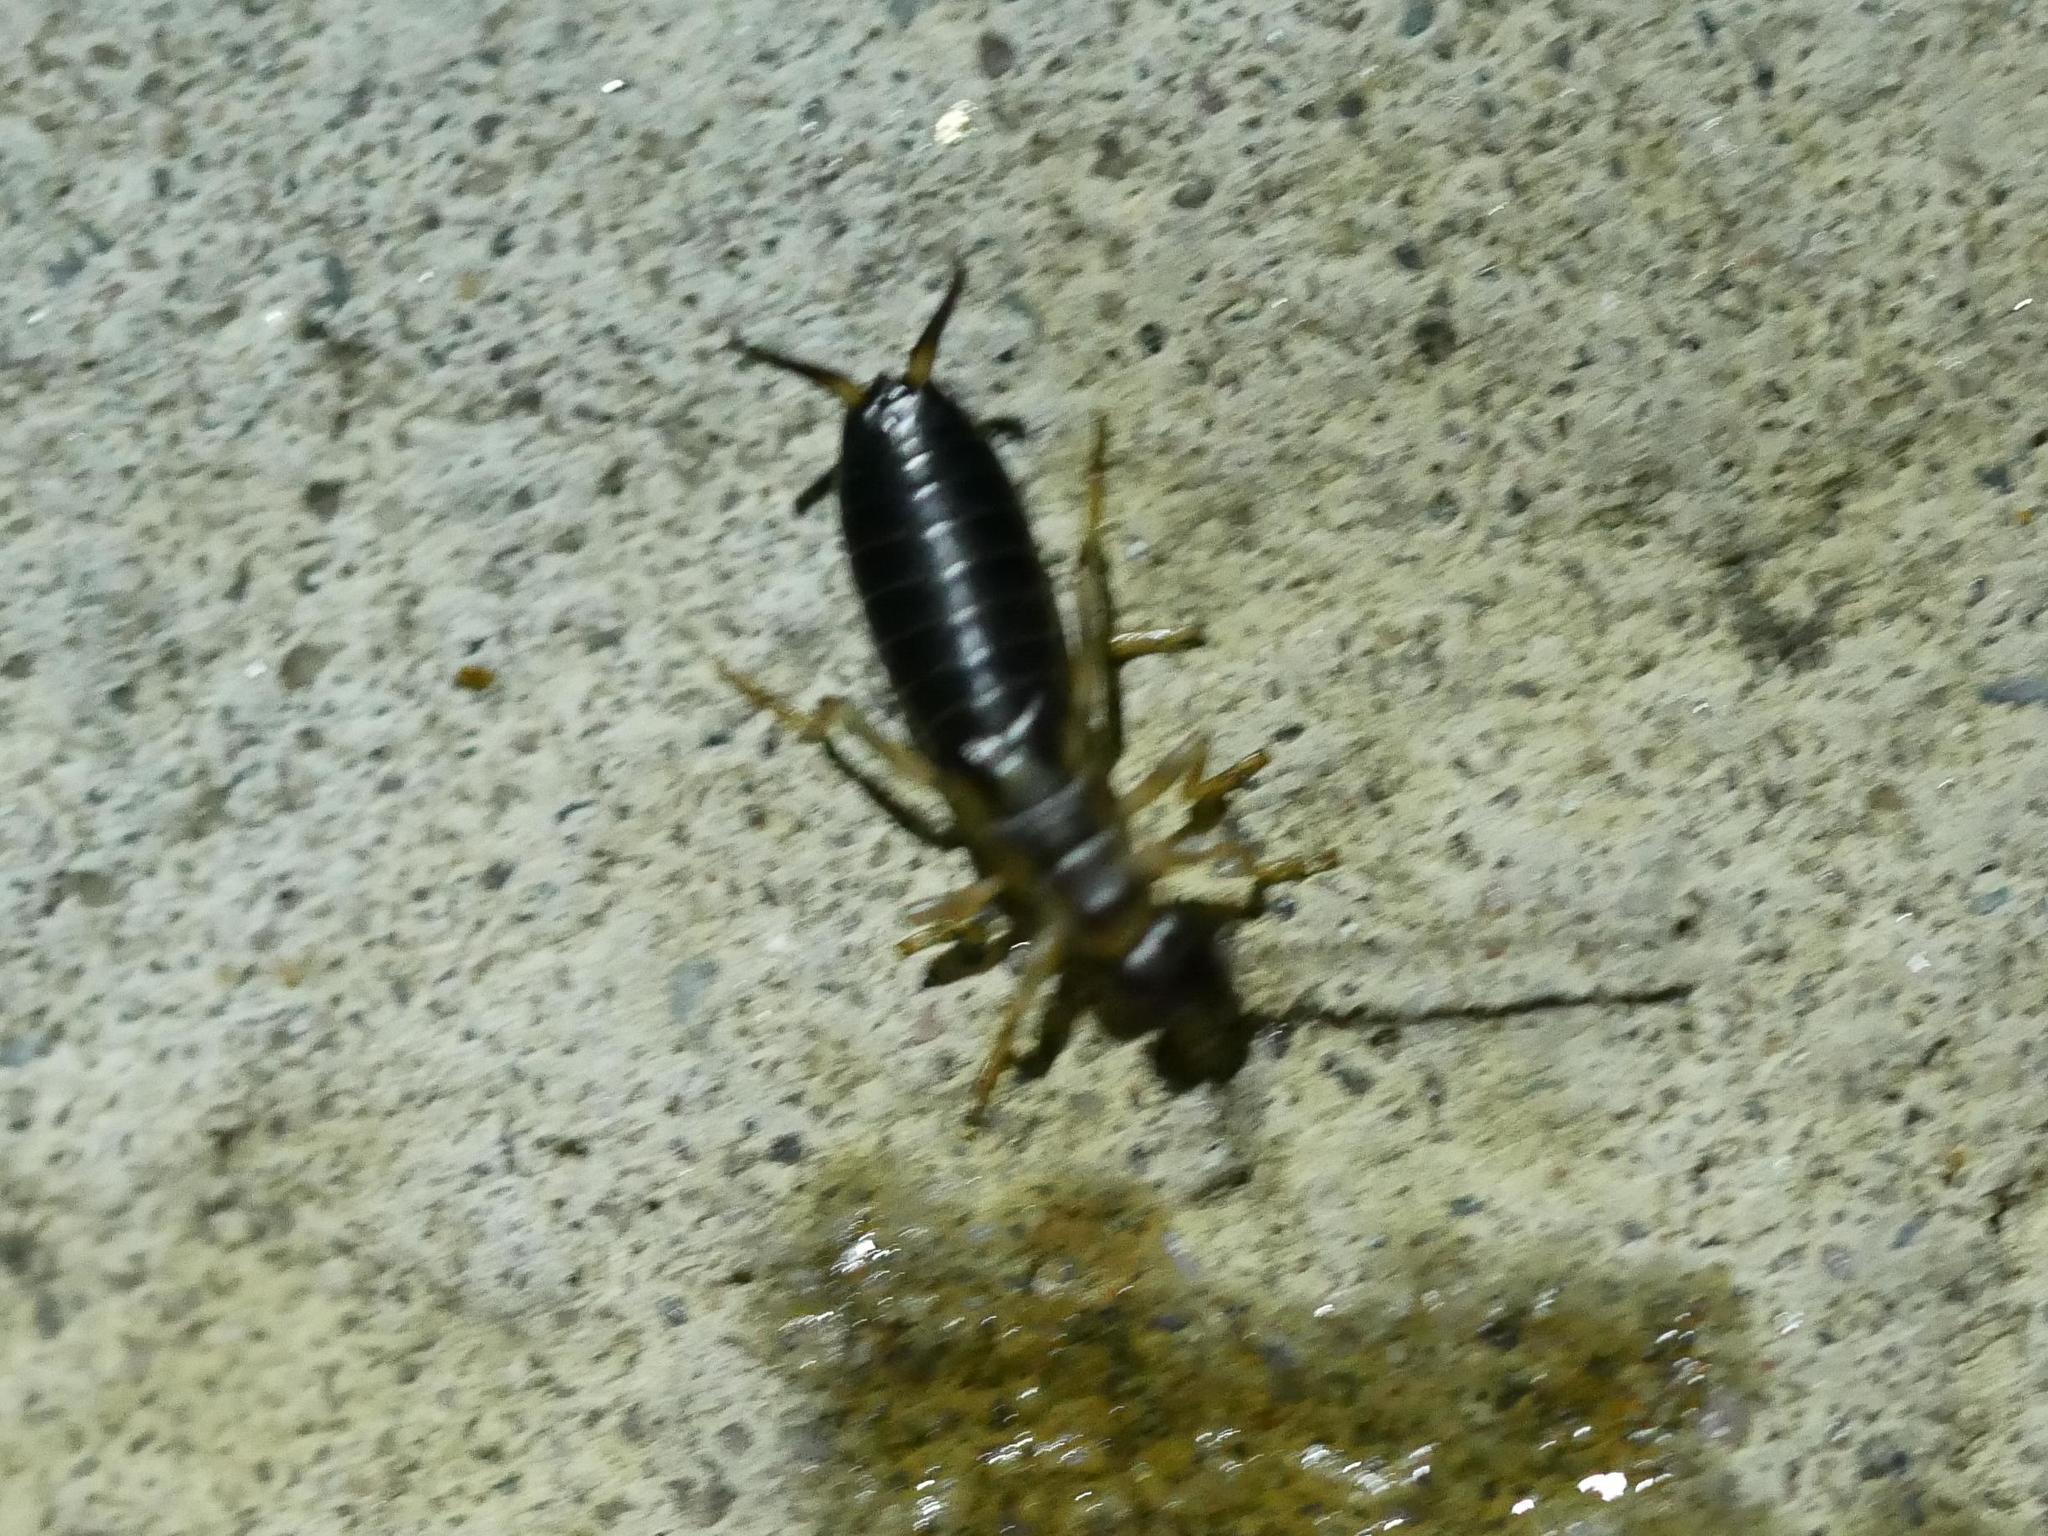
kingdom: Animalia
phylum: Arthropoda
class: Insecta
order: Dermaptera
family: Forficulidae
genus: Forficula
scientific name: Forficula
